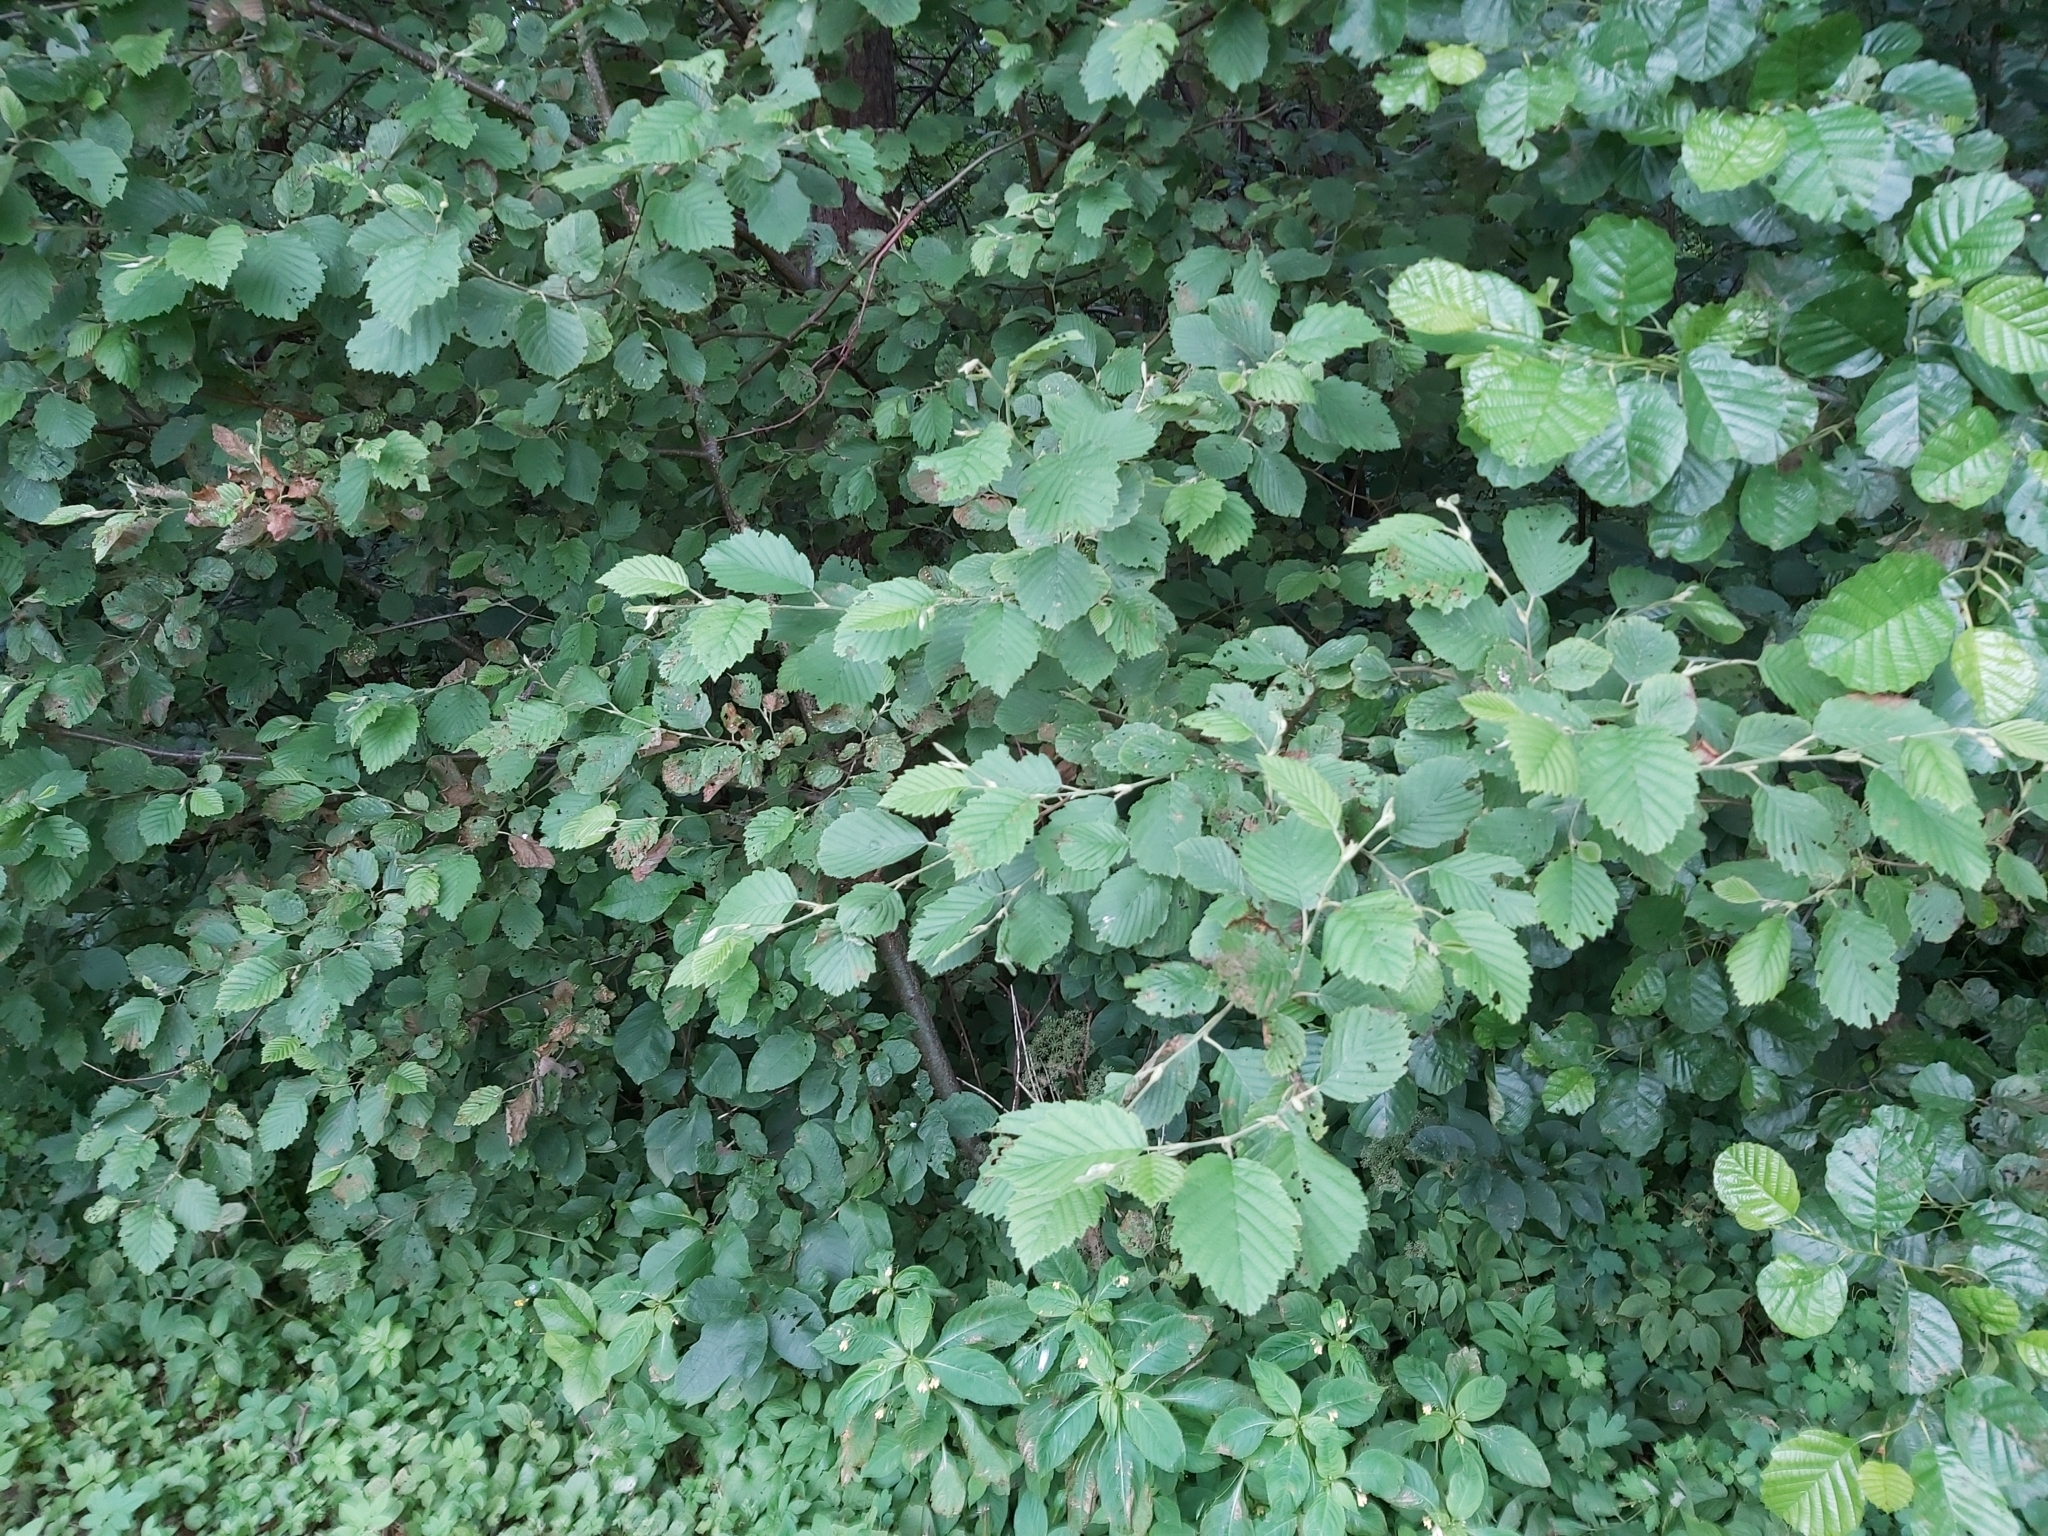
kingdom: Plantae
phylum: Tracheophyta
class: Magnoliopsida
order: Fagales
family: Betulaceae
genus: Alnus
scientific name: Alnus incana
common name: Grey alder
